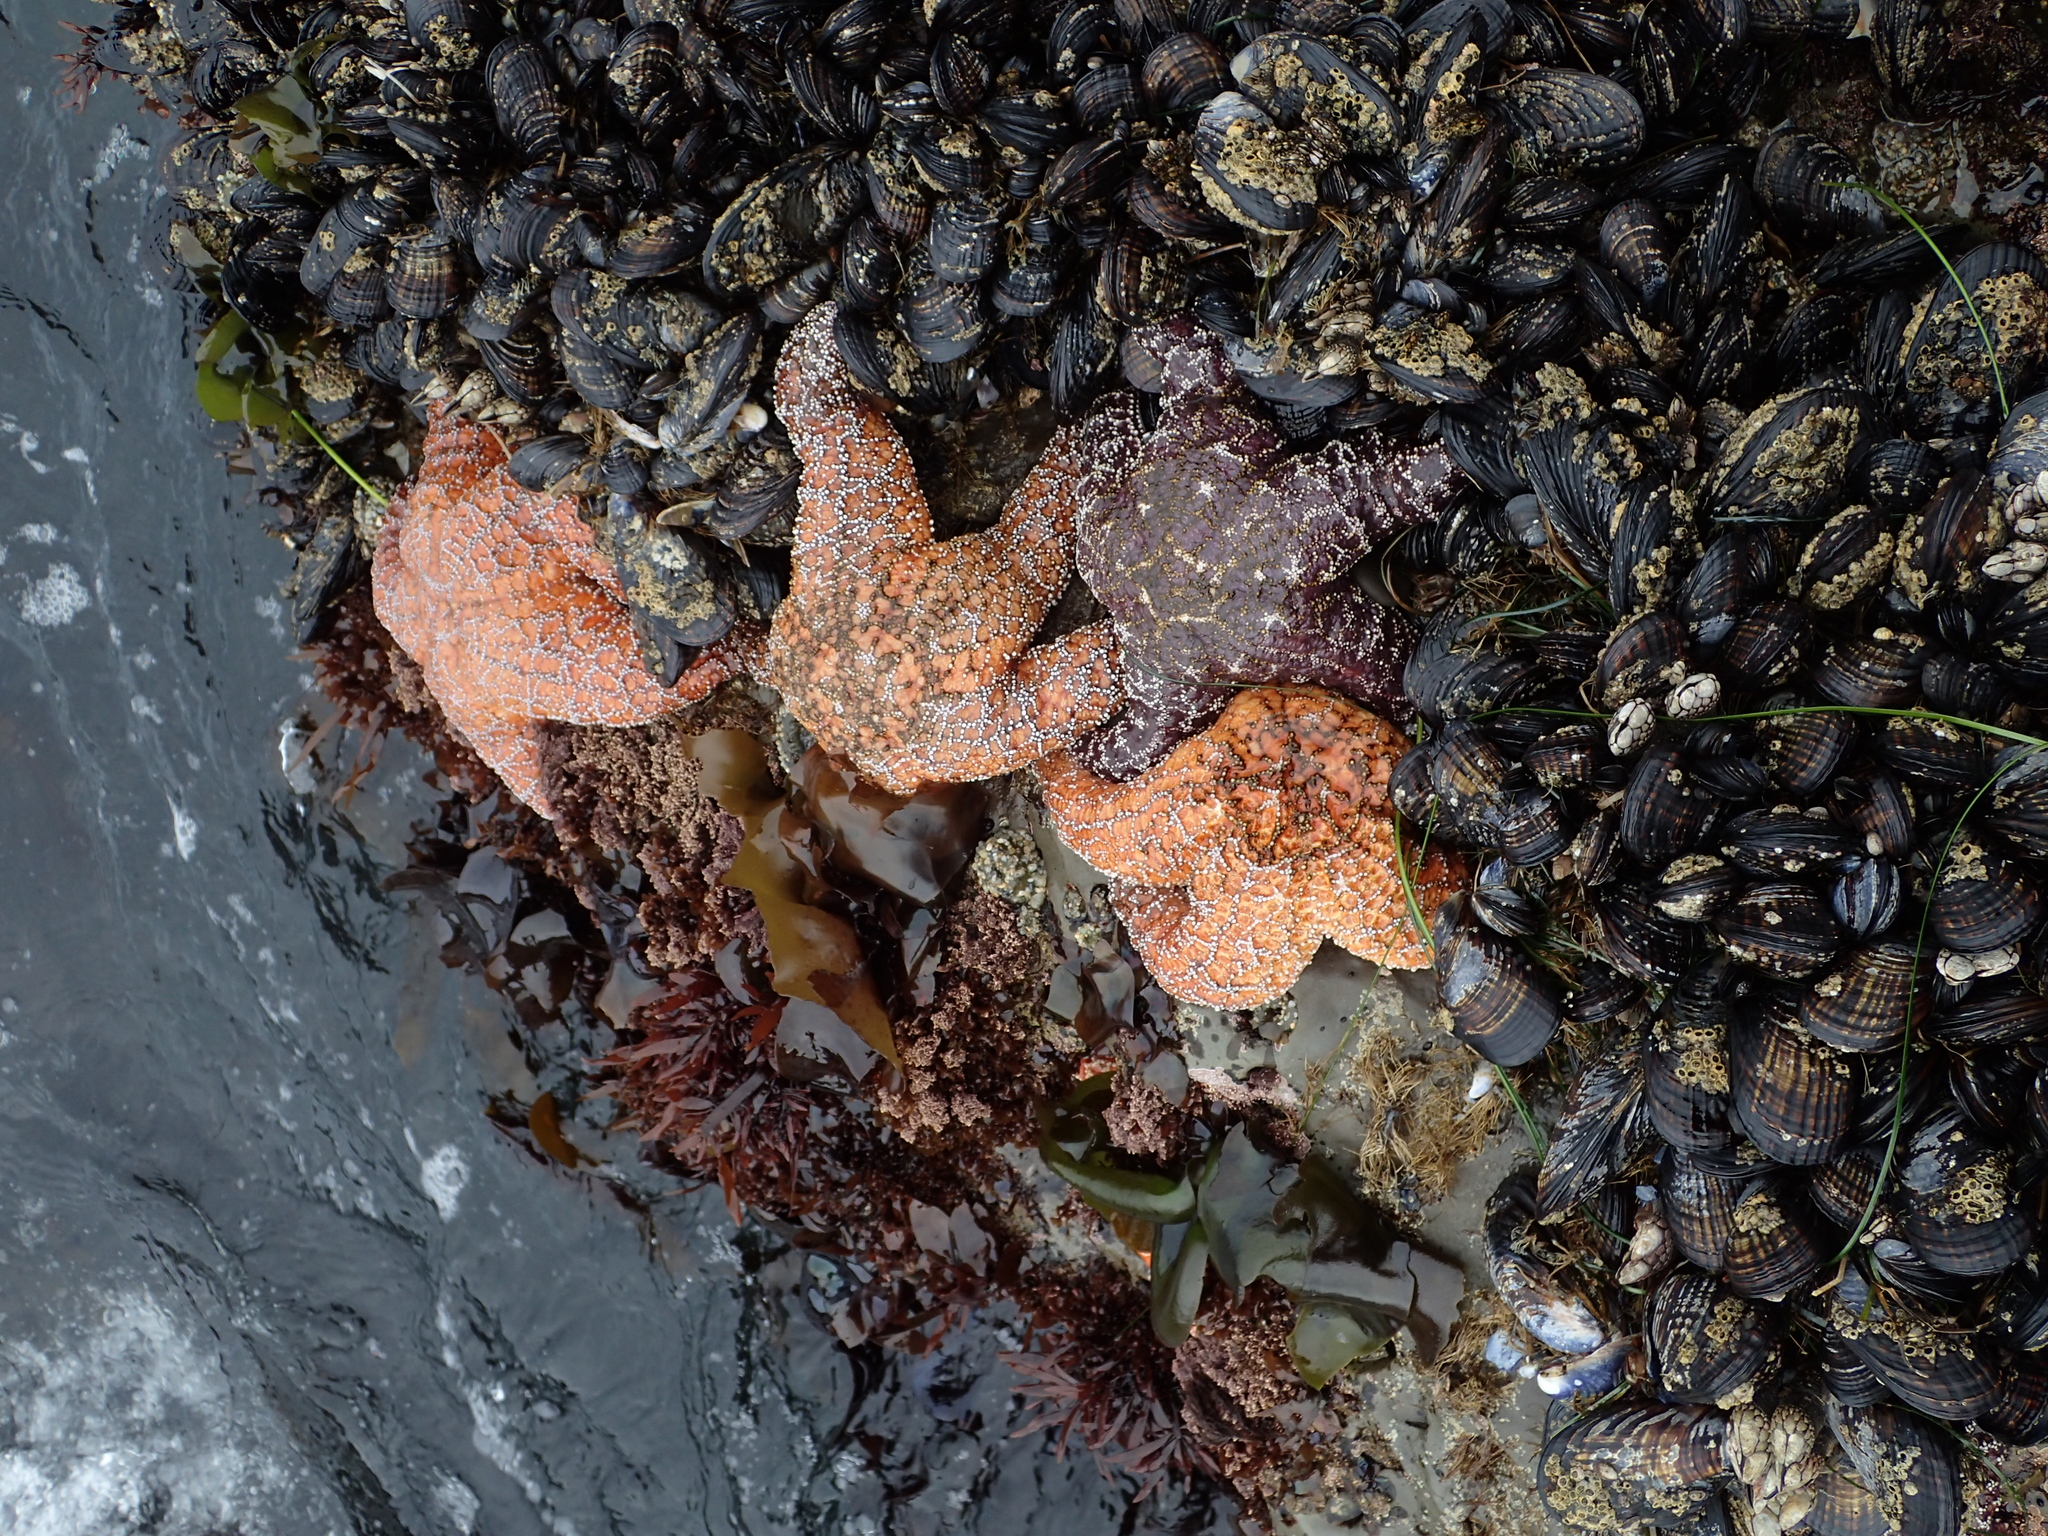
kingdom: Animalia
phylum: Echinodermata
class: Asteroidea
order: Forcipulatida
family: Asteriidae
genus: Pisaster
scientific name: Pisaster ochraceus
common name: Ochre stars
